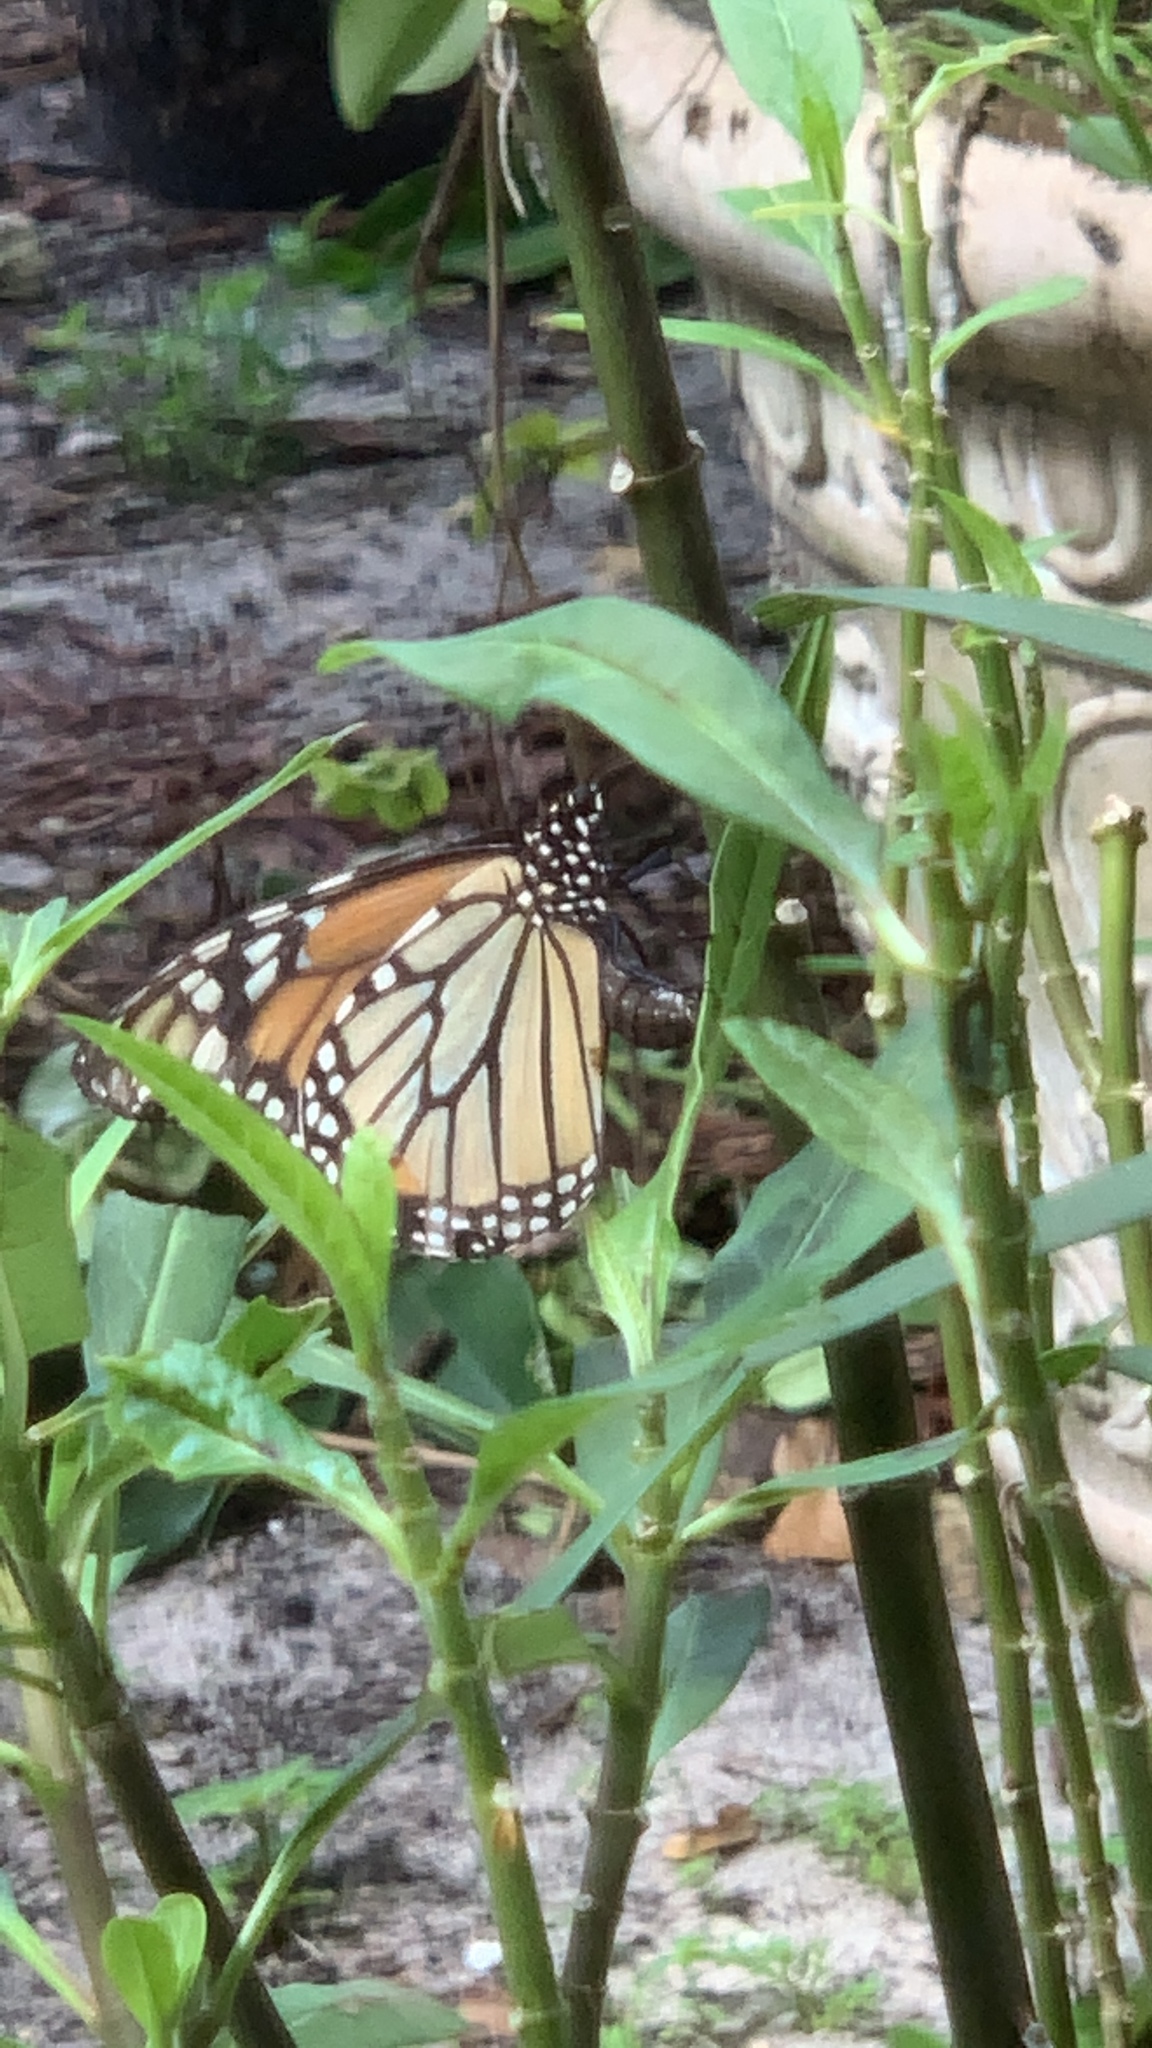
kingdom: Animalia
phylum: Arthropoda
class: Insecta
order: Lepidoptera
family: Nymphalidae
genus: Danaus
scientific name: Danaus plexippus
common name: Monarch
